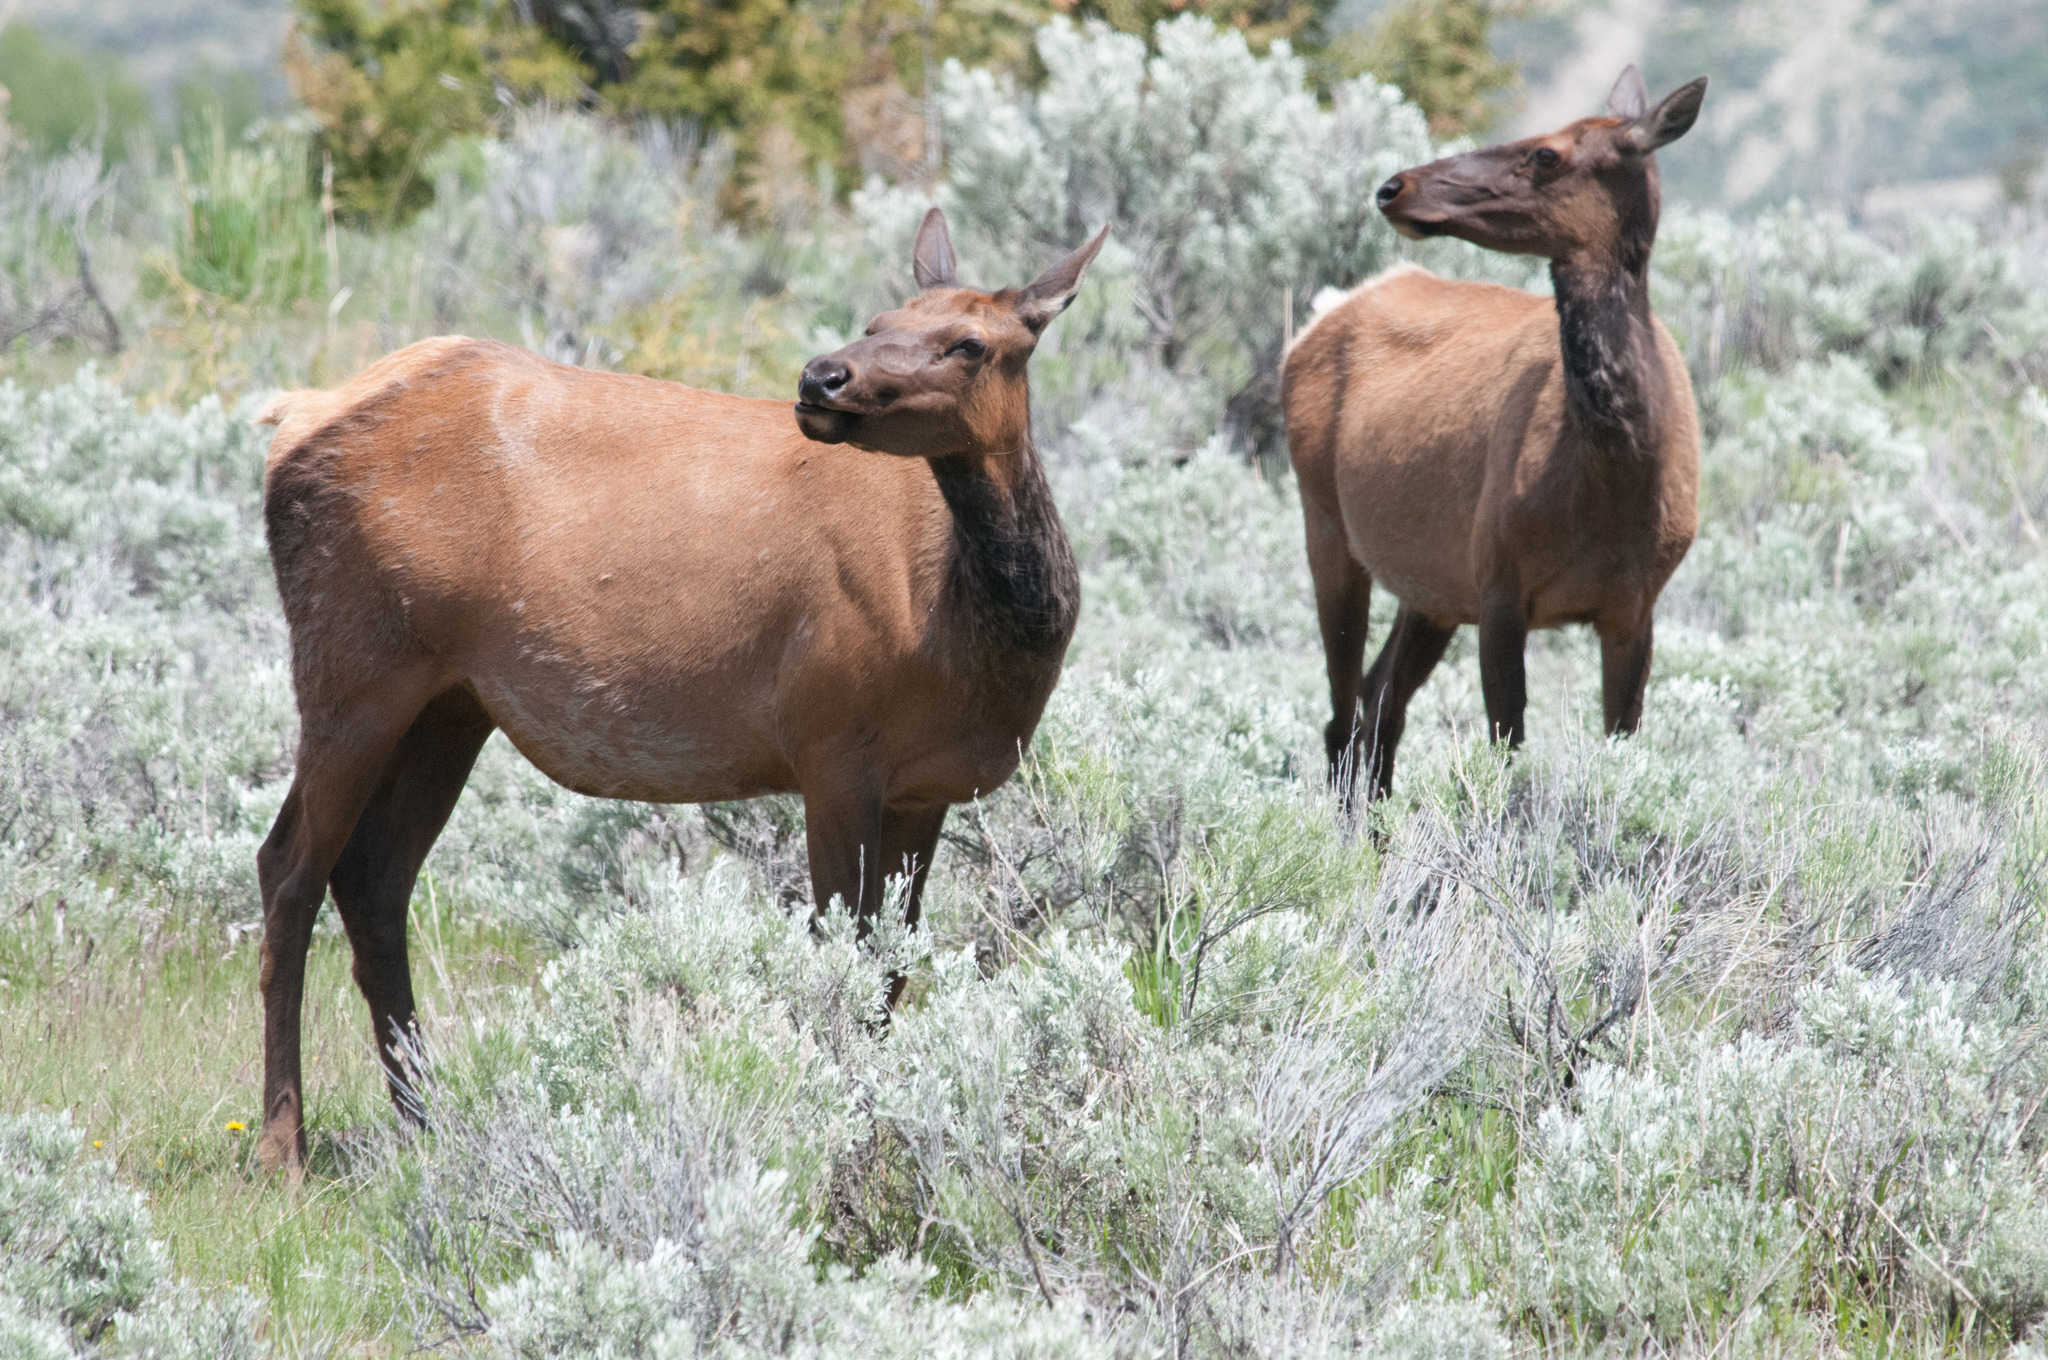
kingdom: Animalia
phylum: Chordata
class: Mammalia
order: Artiodactyla
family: Cervidae
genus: Cervus
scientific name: Cervus elaphus
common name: Red deer
